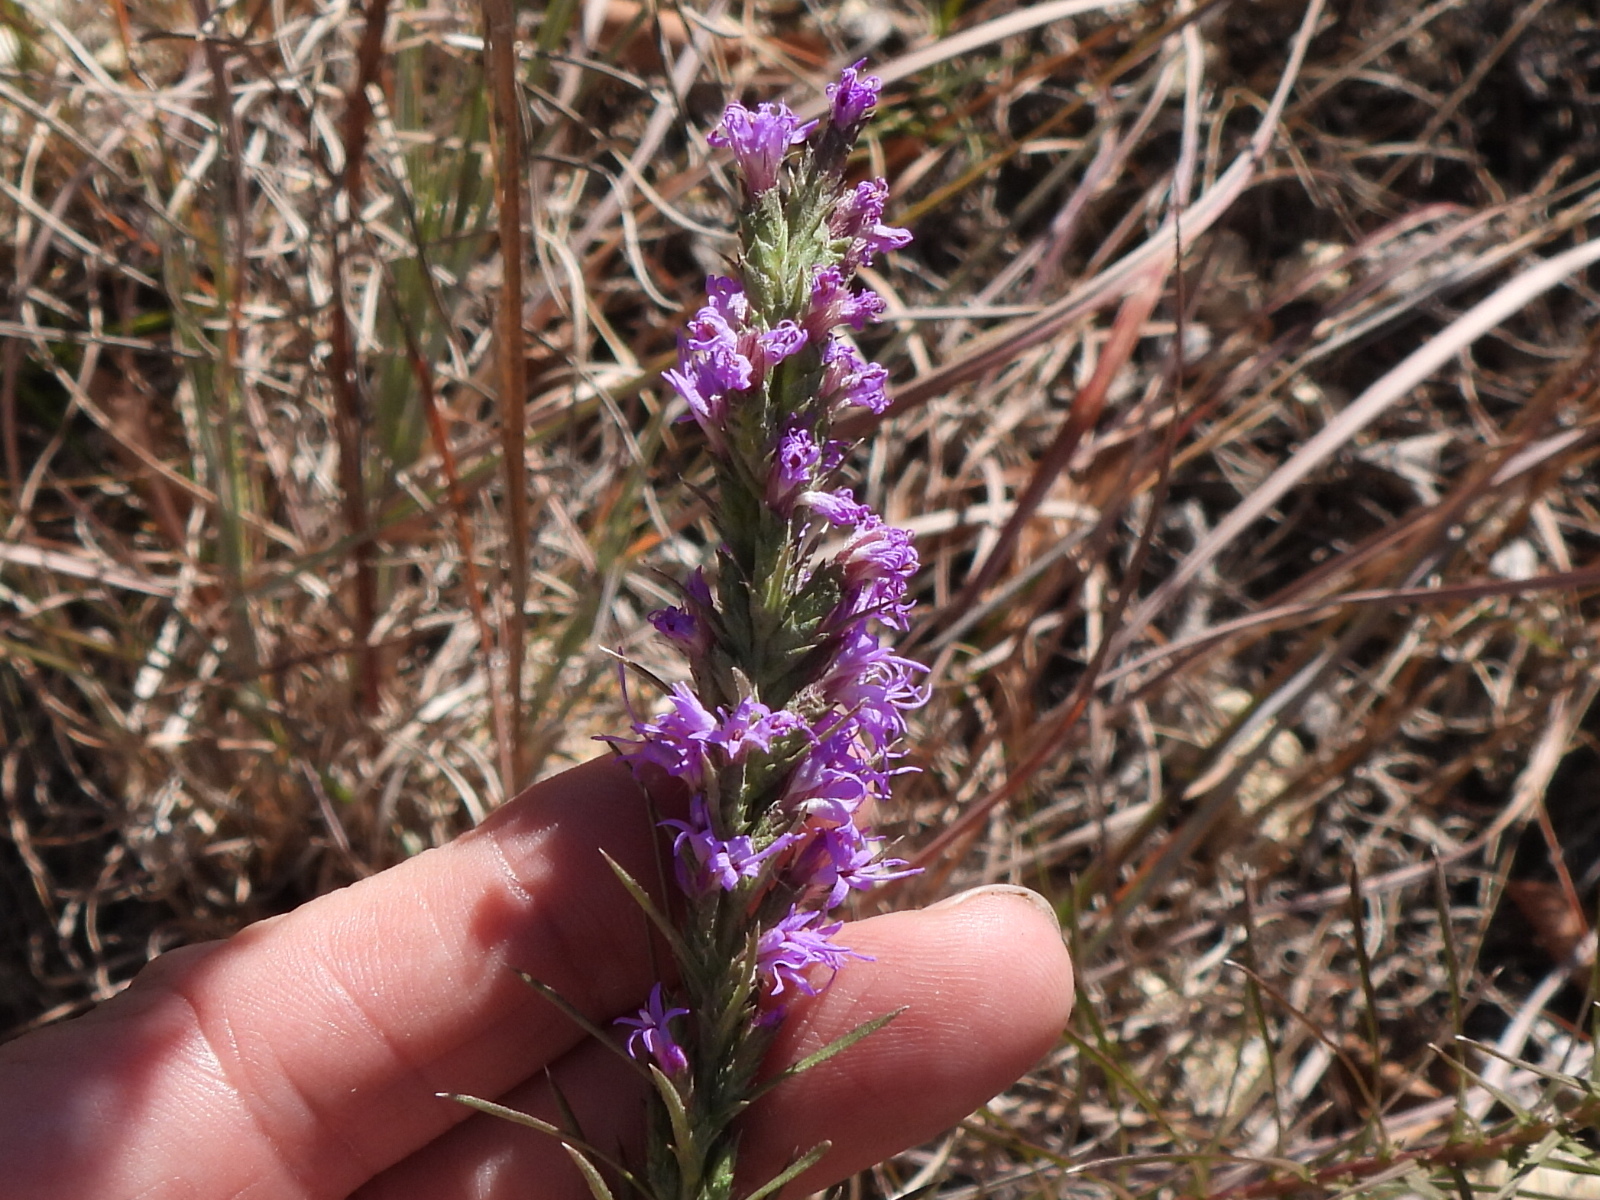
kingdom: Plantae
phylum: Tracheophyta
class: Magnoliopsida
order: Asterales
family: Asteraceae
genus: Liatris
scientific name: Liatris punctata
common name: Dotted gayfeather
